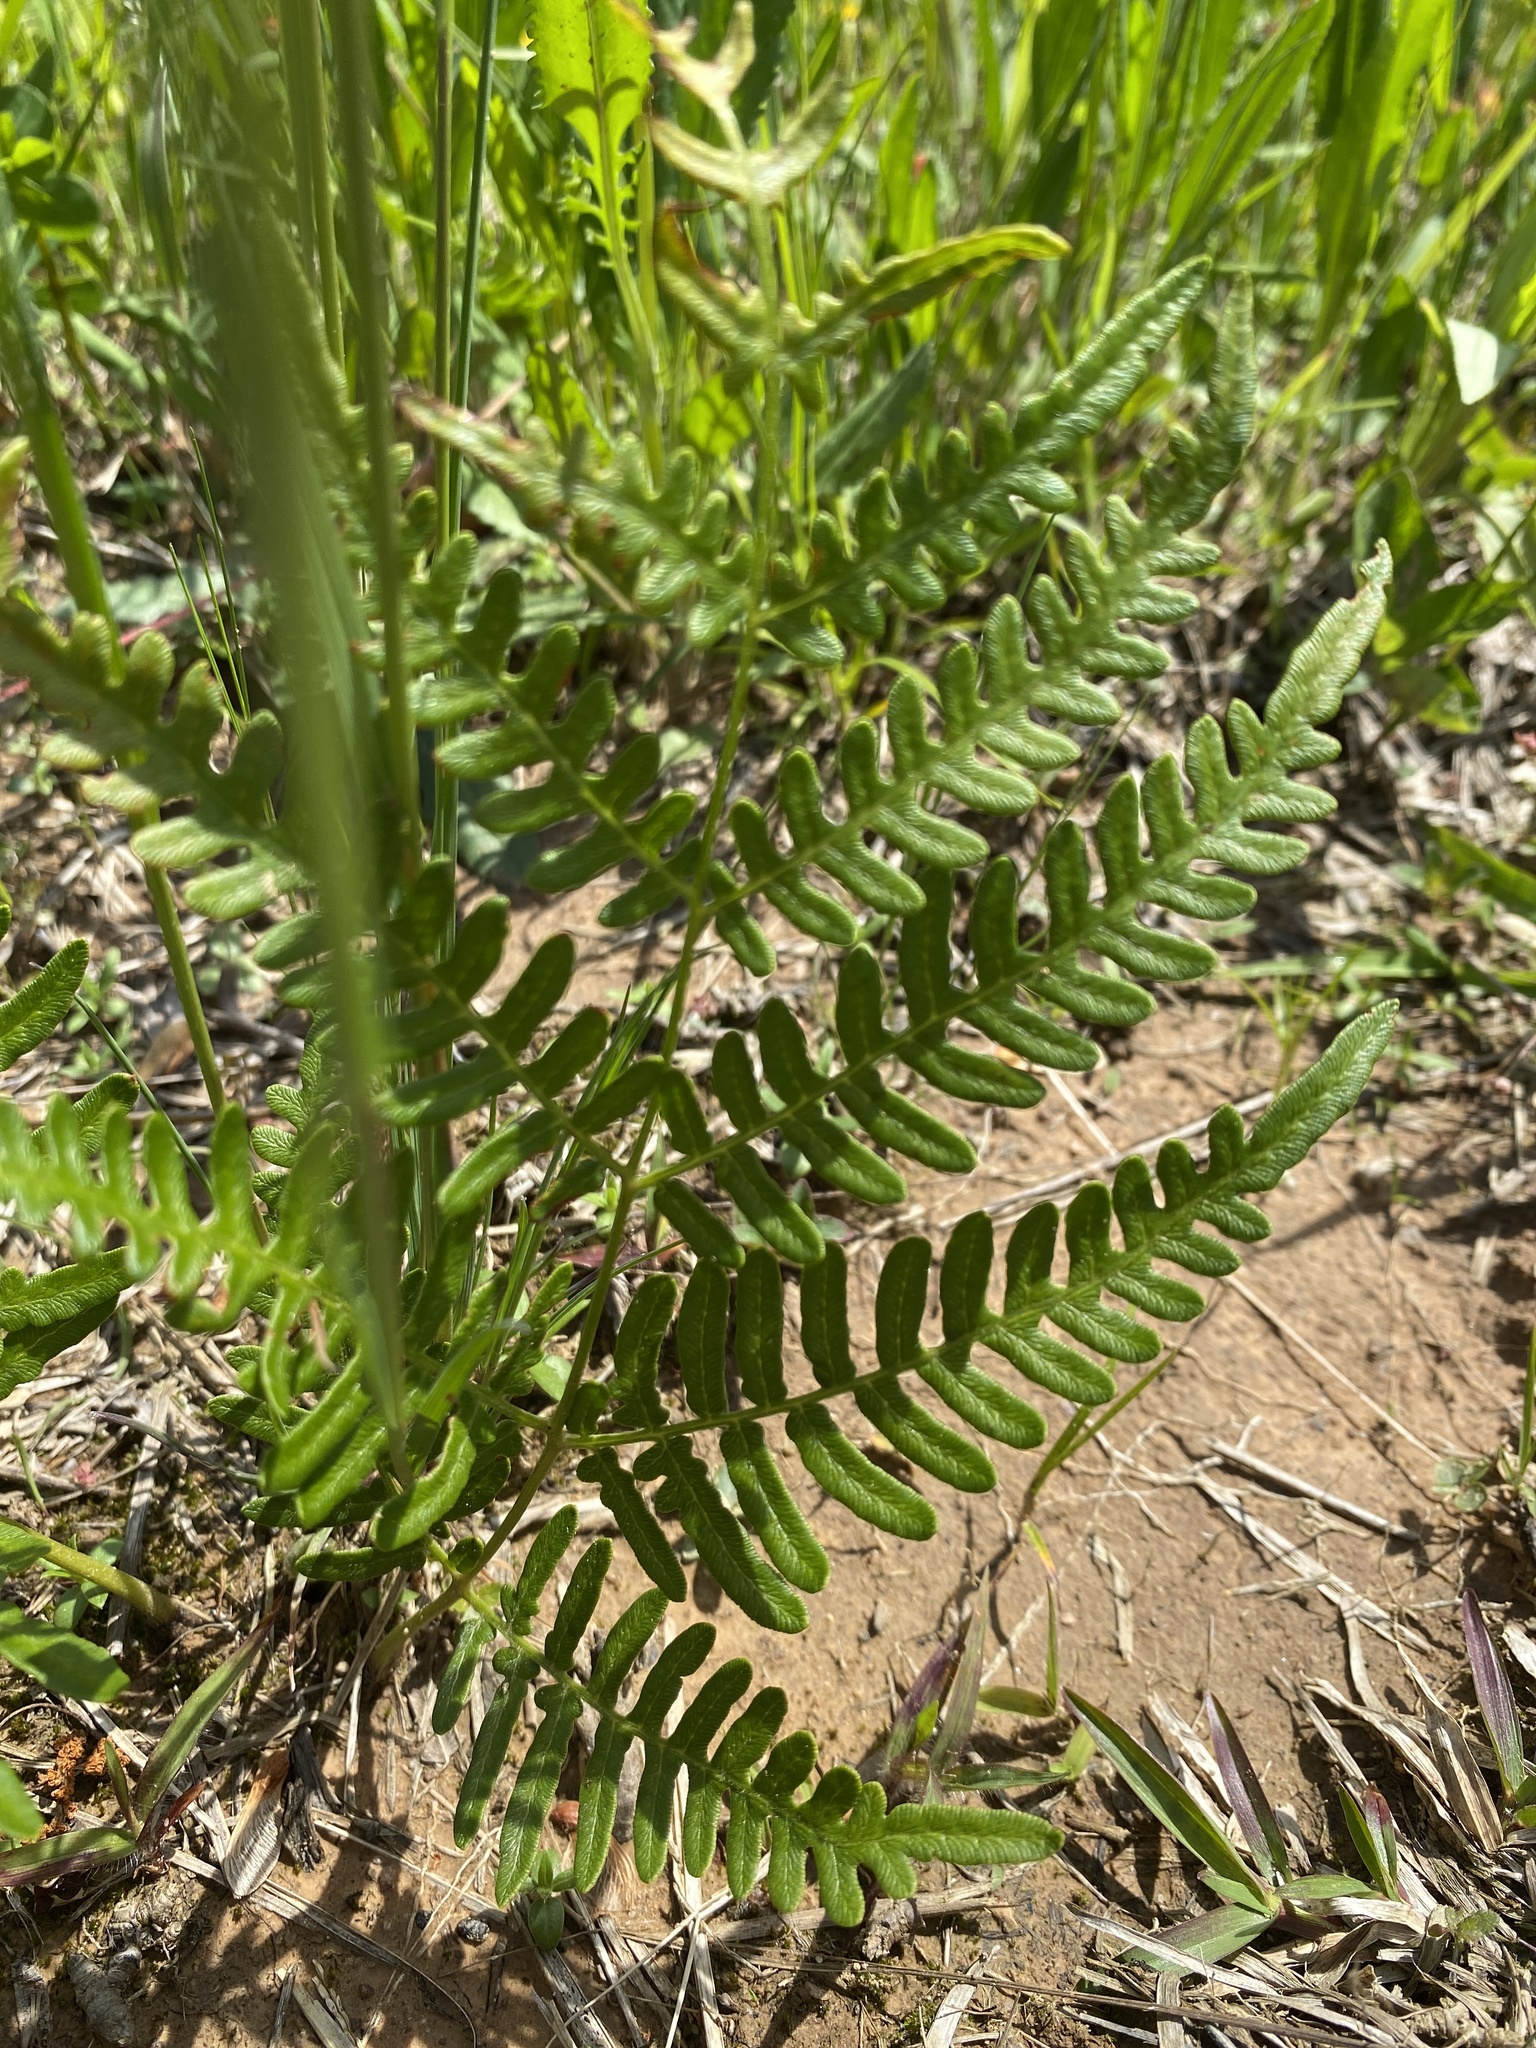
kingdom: Plantae
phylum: Tracheophyta
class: Polypodiopsida
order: Polypodiales
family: Dennstaedtiaceae
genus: Pteridium
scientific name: Pteridium
